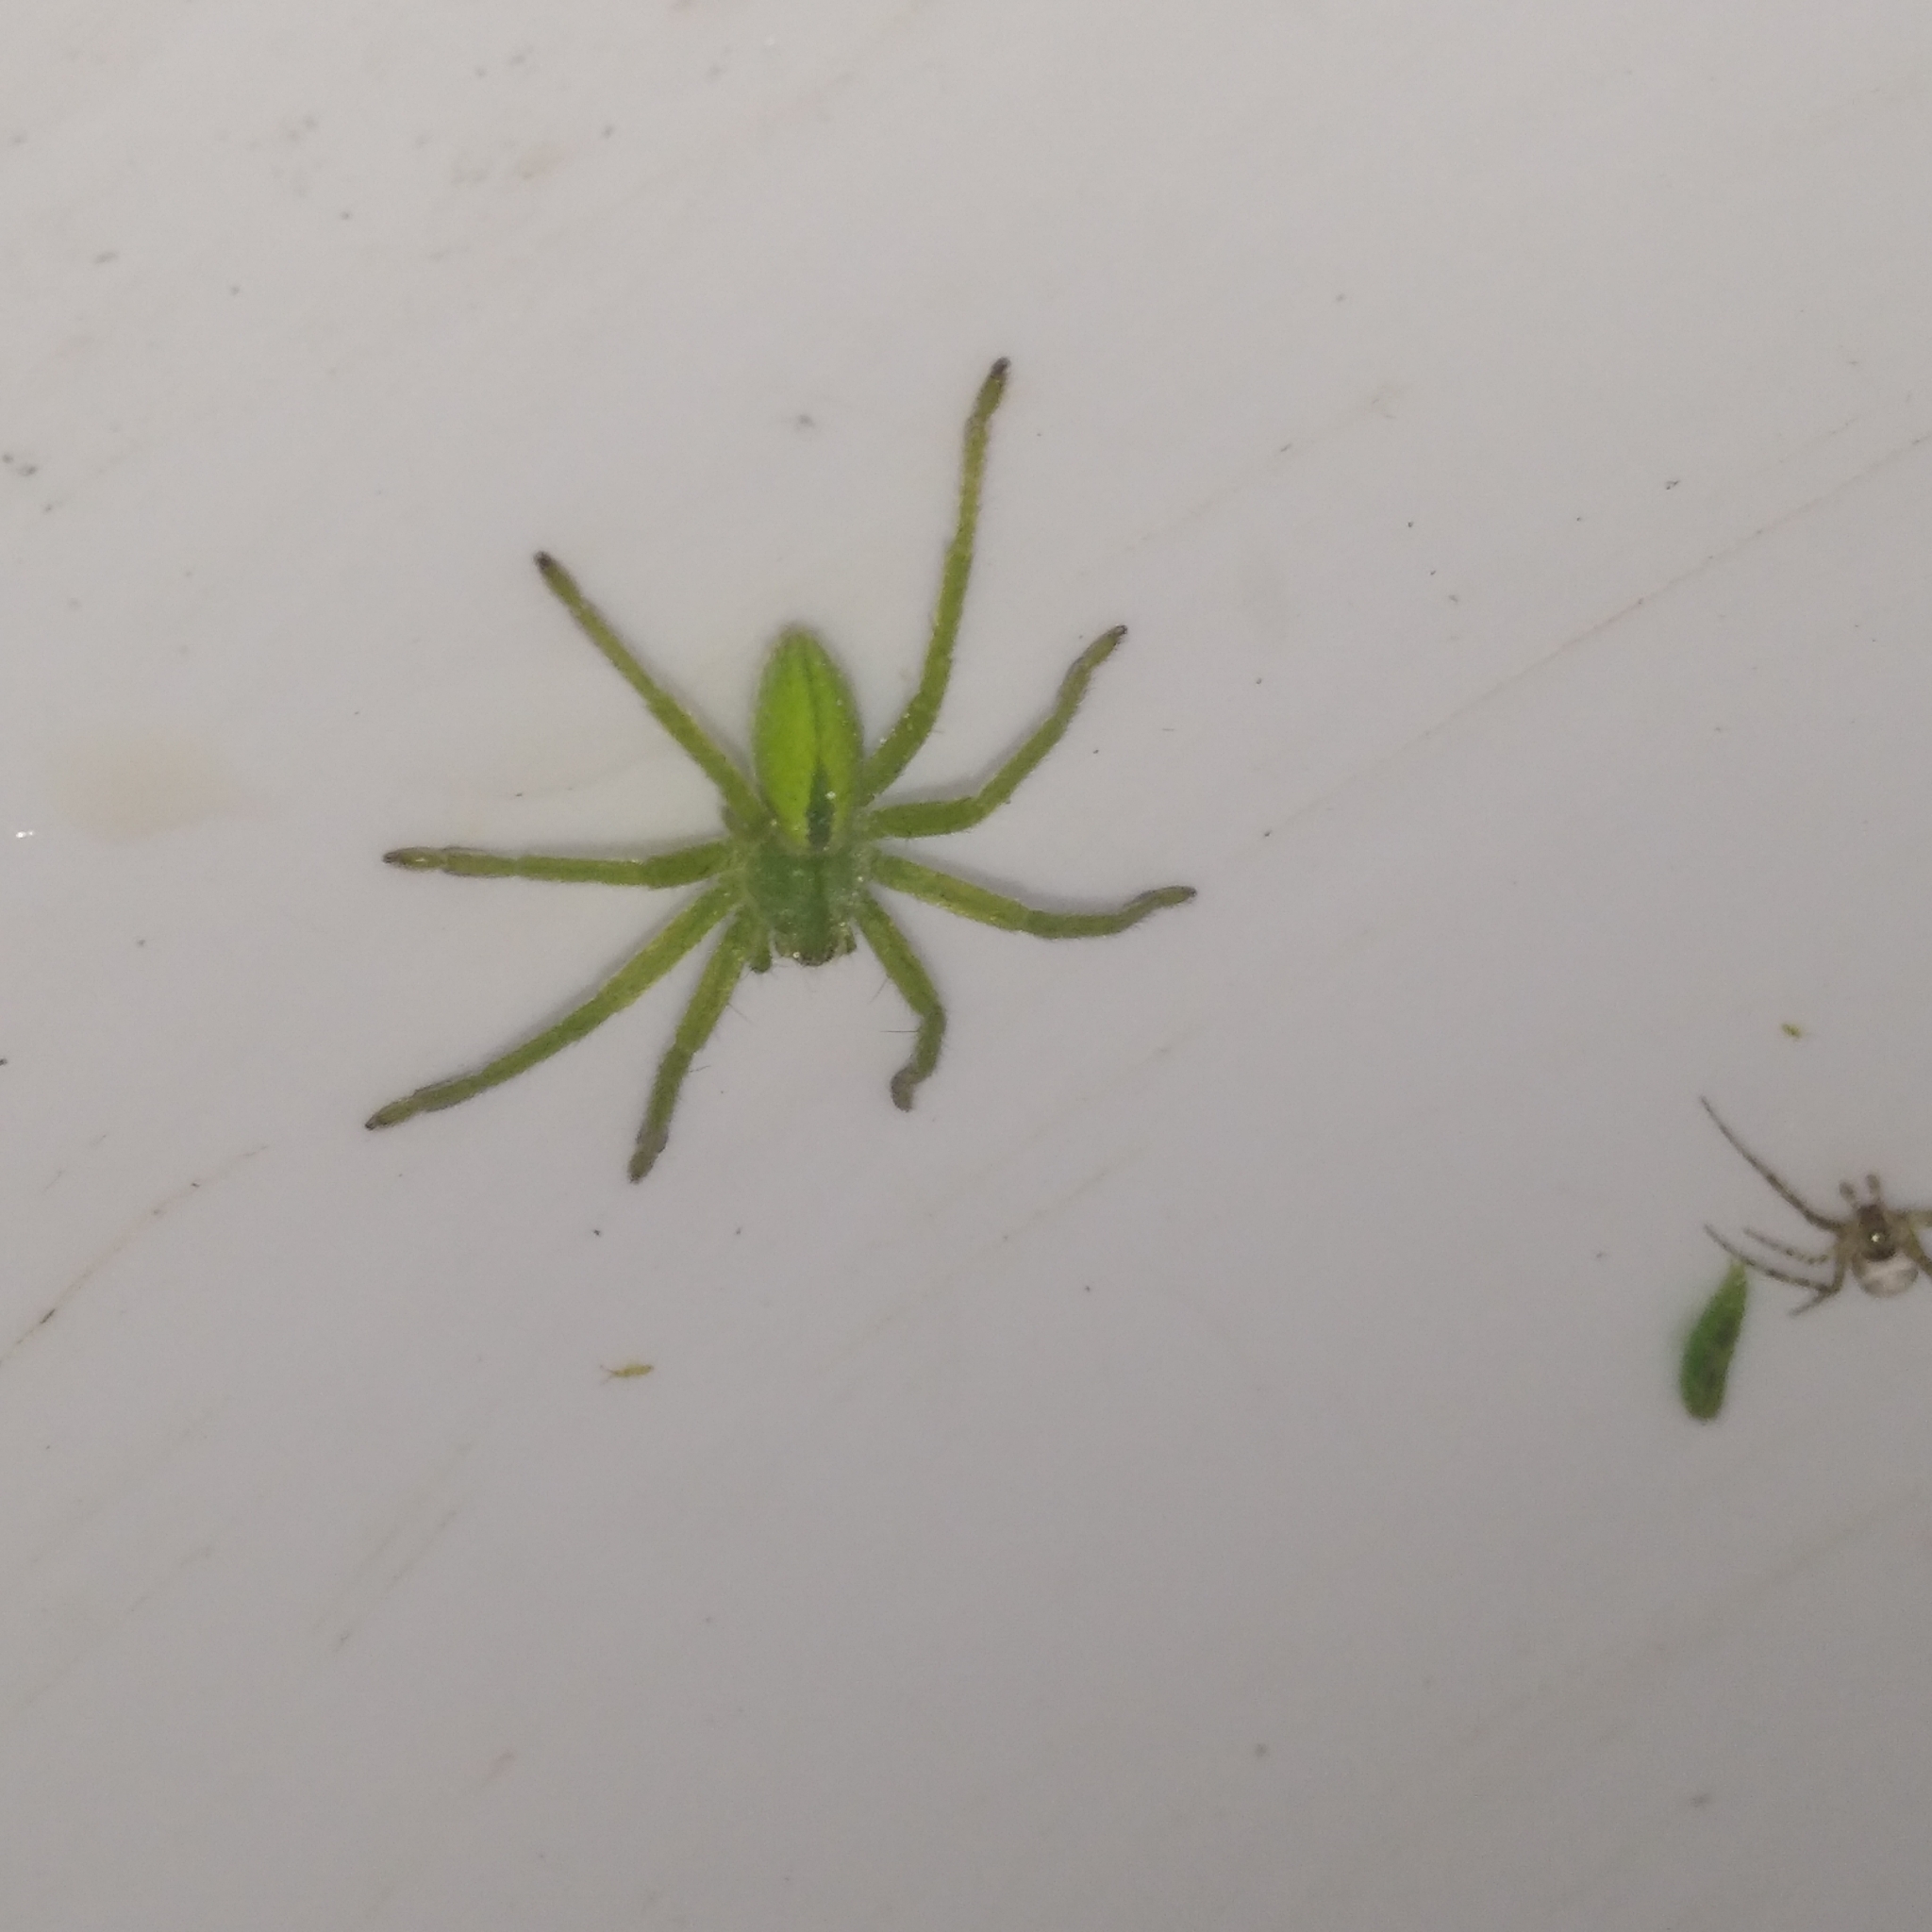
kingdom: Animalia
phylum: Arthropoda
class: Arachnida
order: Araneae
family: Sparassidae
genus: Micrommata
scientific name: Micrommata virescens
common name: Green spider
